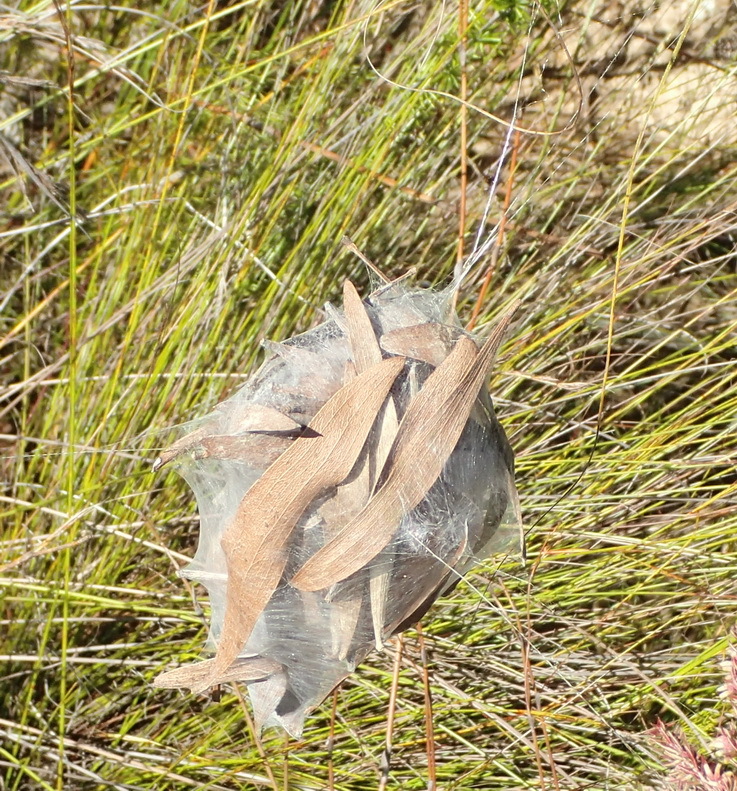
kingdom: Animalia
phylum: Arthropoda
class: Arachnida
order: Araneae
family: Sparassidae
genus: Palystes
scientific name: Palystes superciliosus
